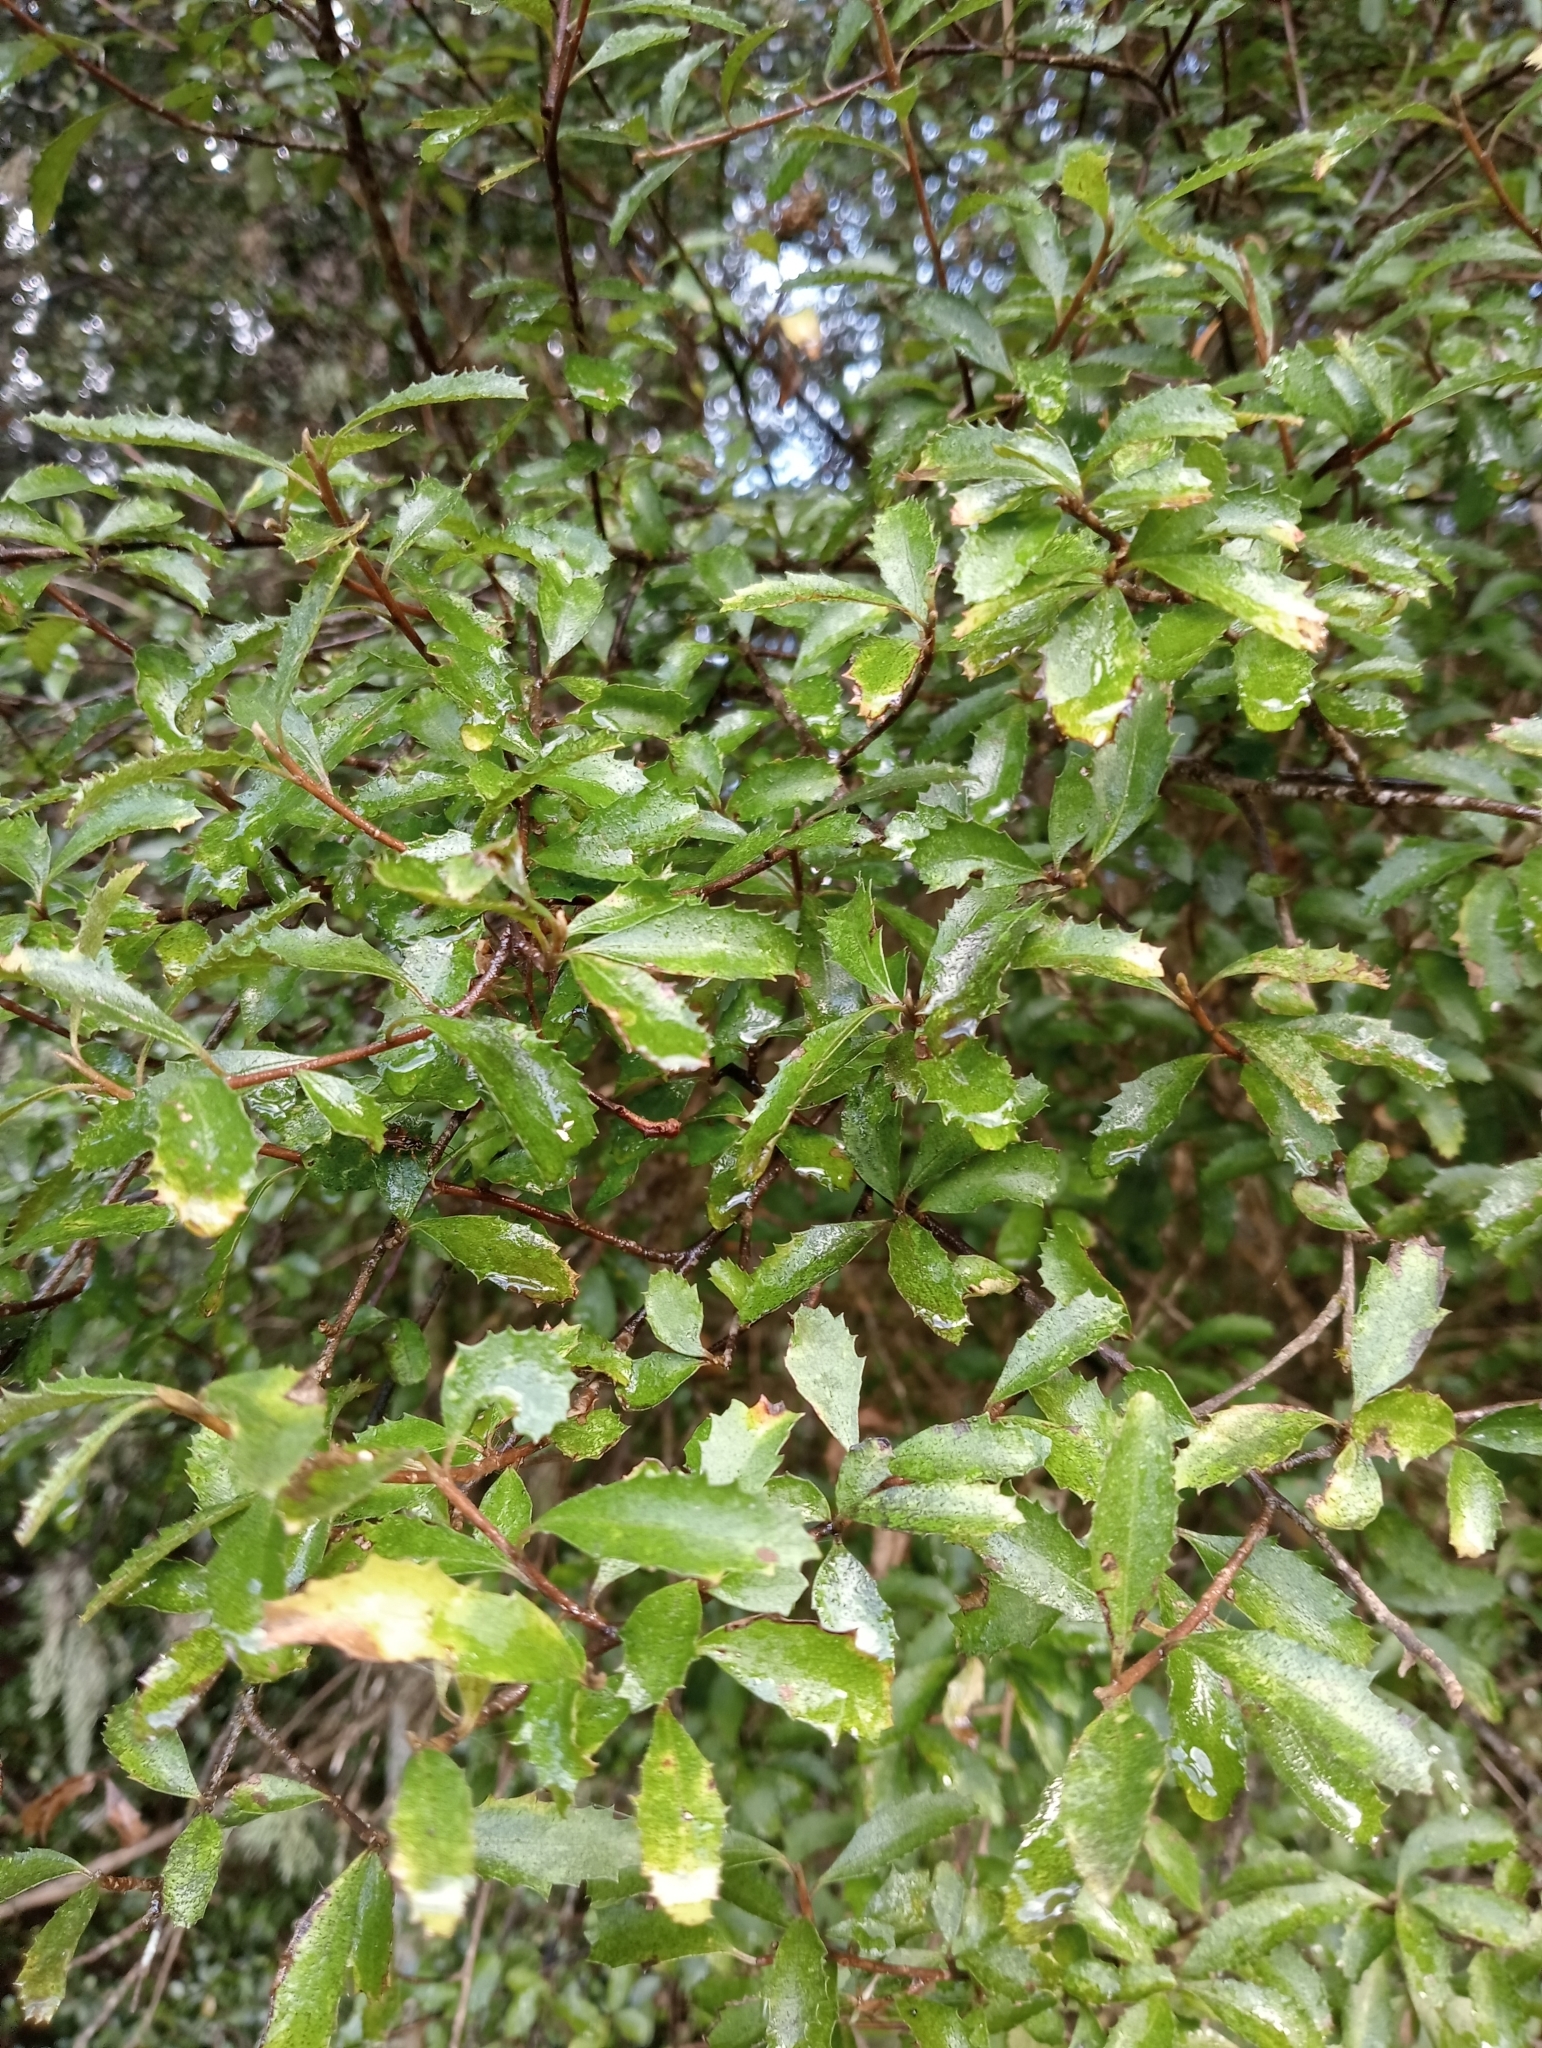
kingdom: Plantae
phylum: Tracheophyta
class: Magnoliopsida
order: Malvales
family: Malvaceae
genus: Hoheria
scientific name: Hoheria angustifolia
